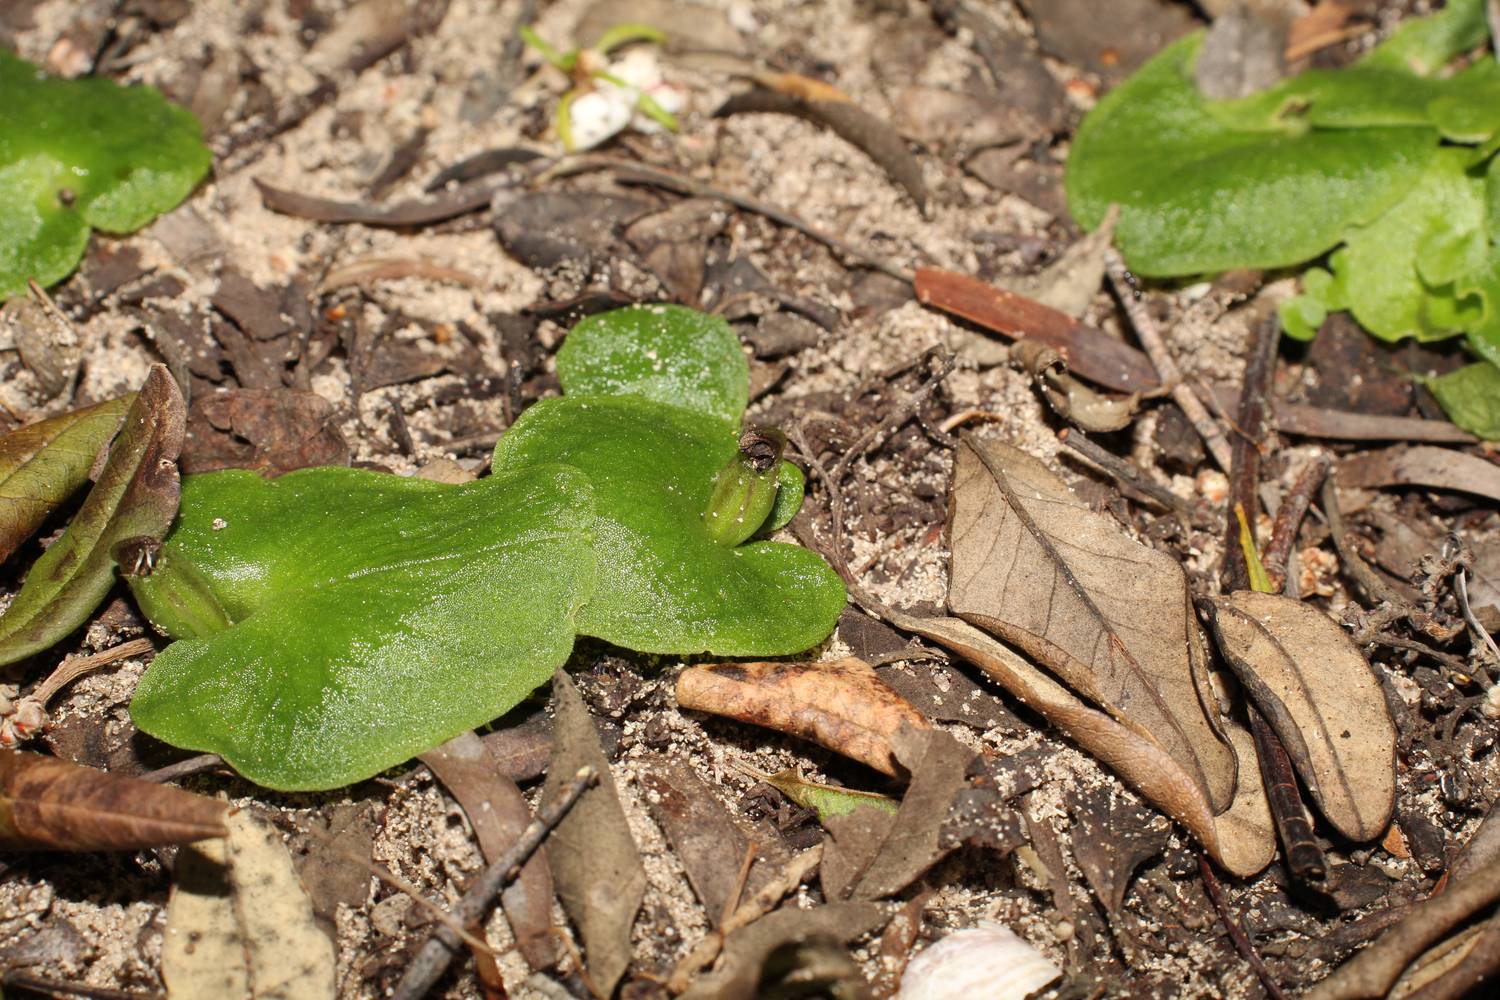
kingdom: Plantae
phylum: Tracheophyta
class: Liliopsida
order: Asparagales
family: Orchidaceae
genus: Corybas
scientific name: Corybas despectans
